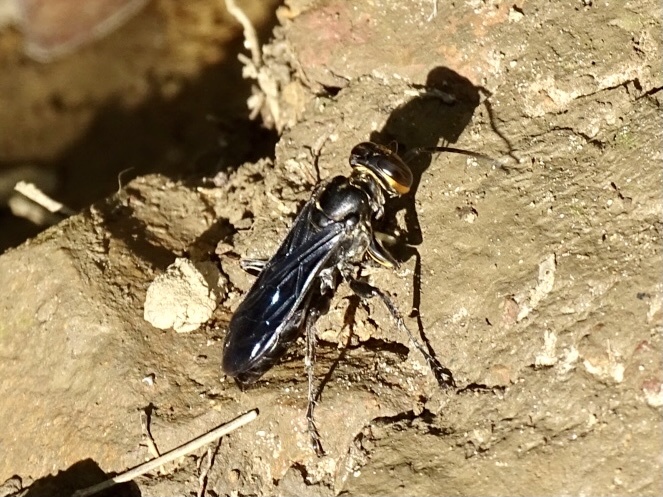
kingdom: Animalia
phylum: Arthropoda
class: Insecta
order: Hymenoptera
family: Crabronidae
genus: Liris
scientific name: Liris anthracinus
